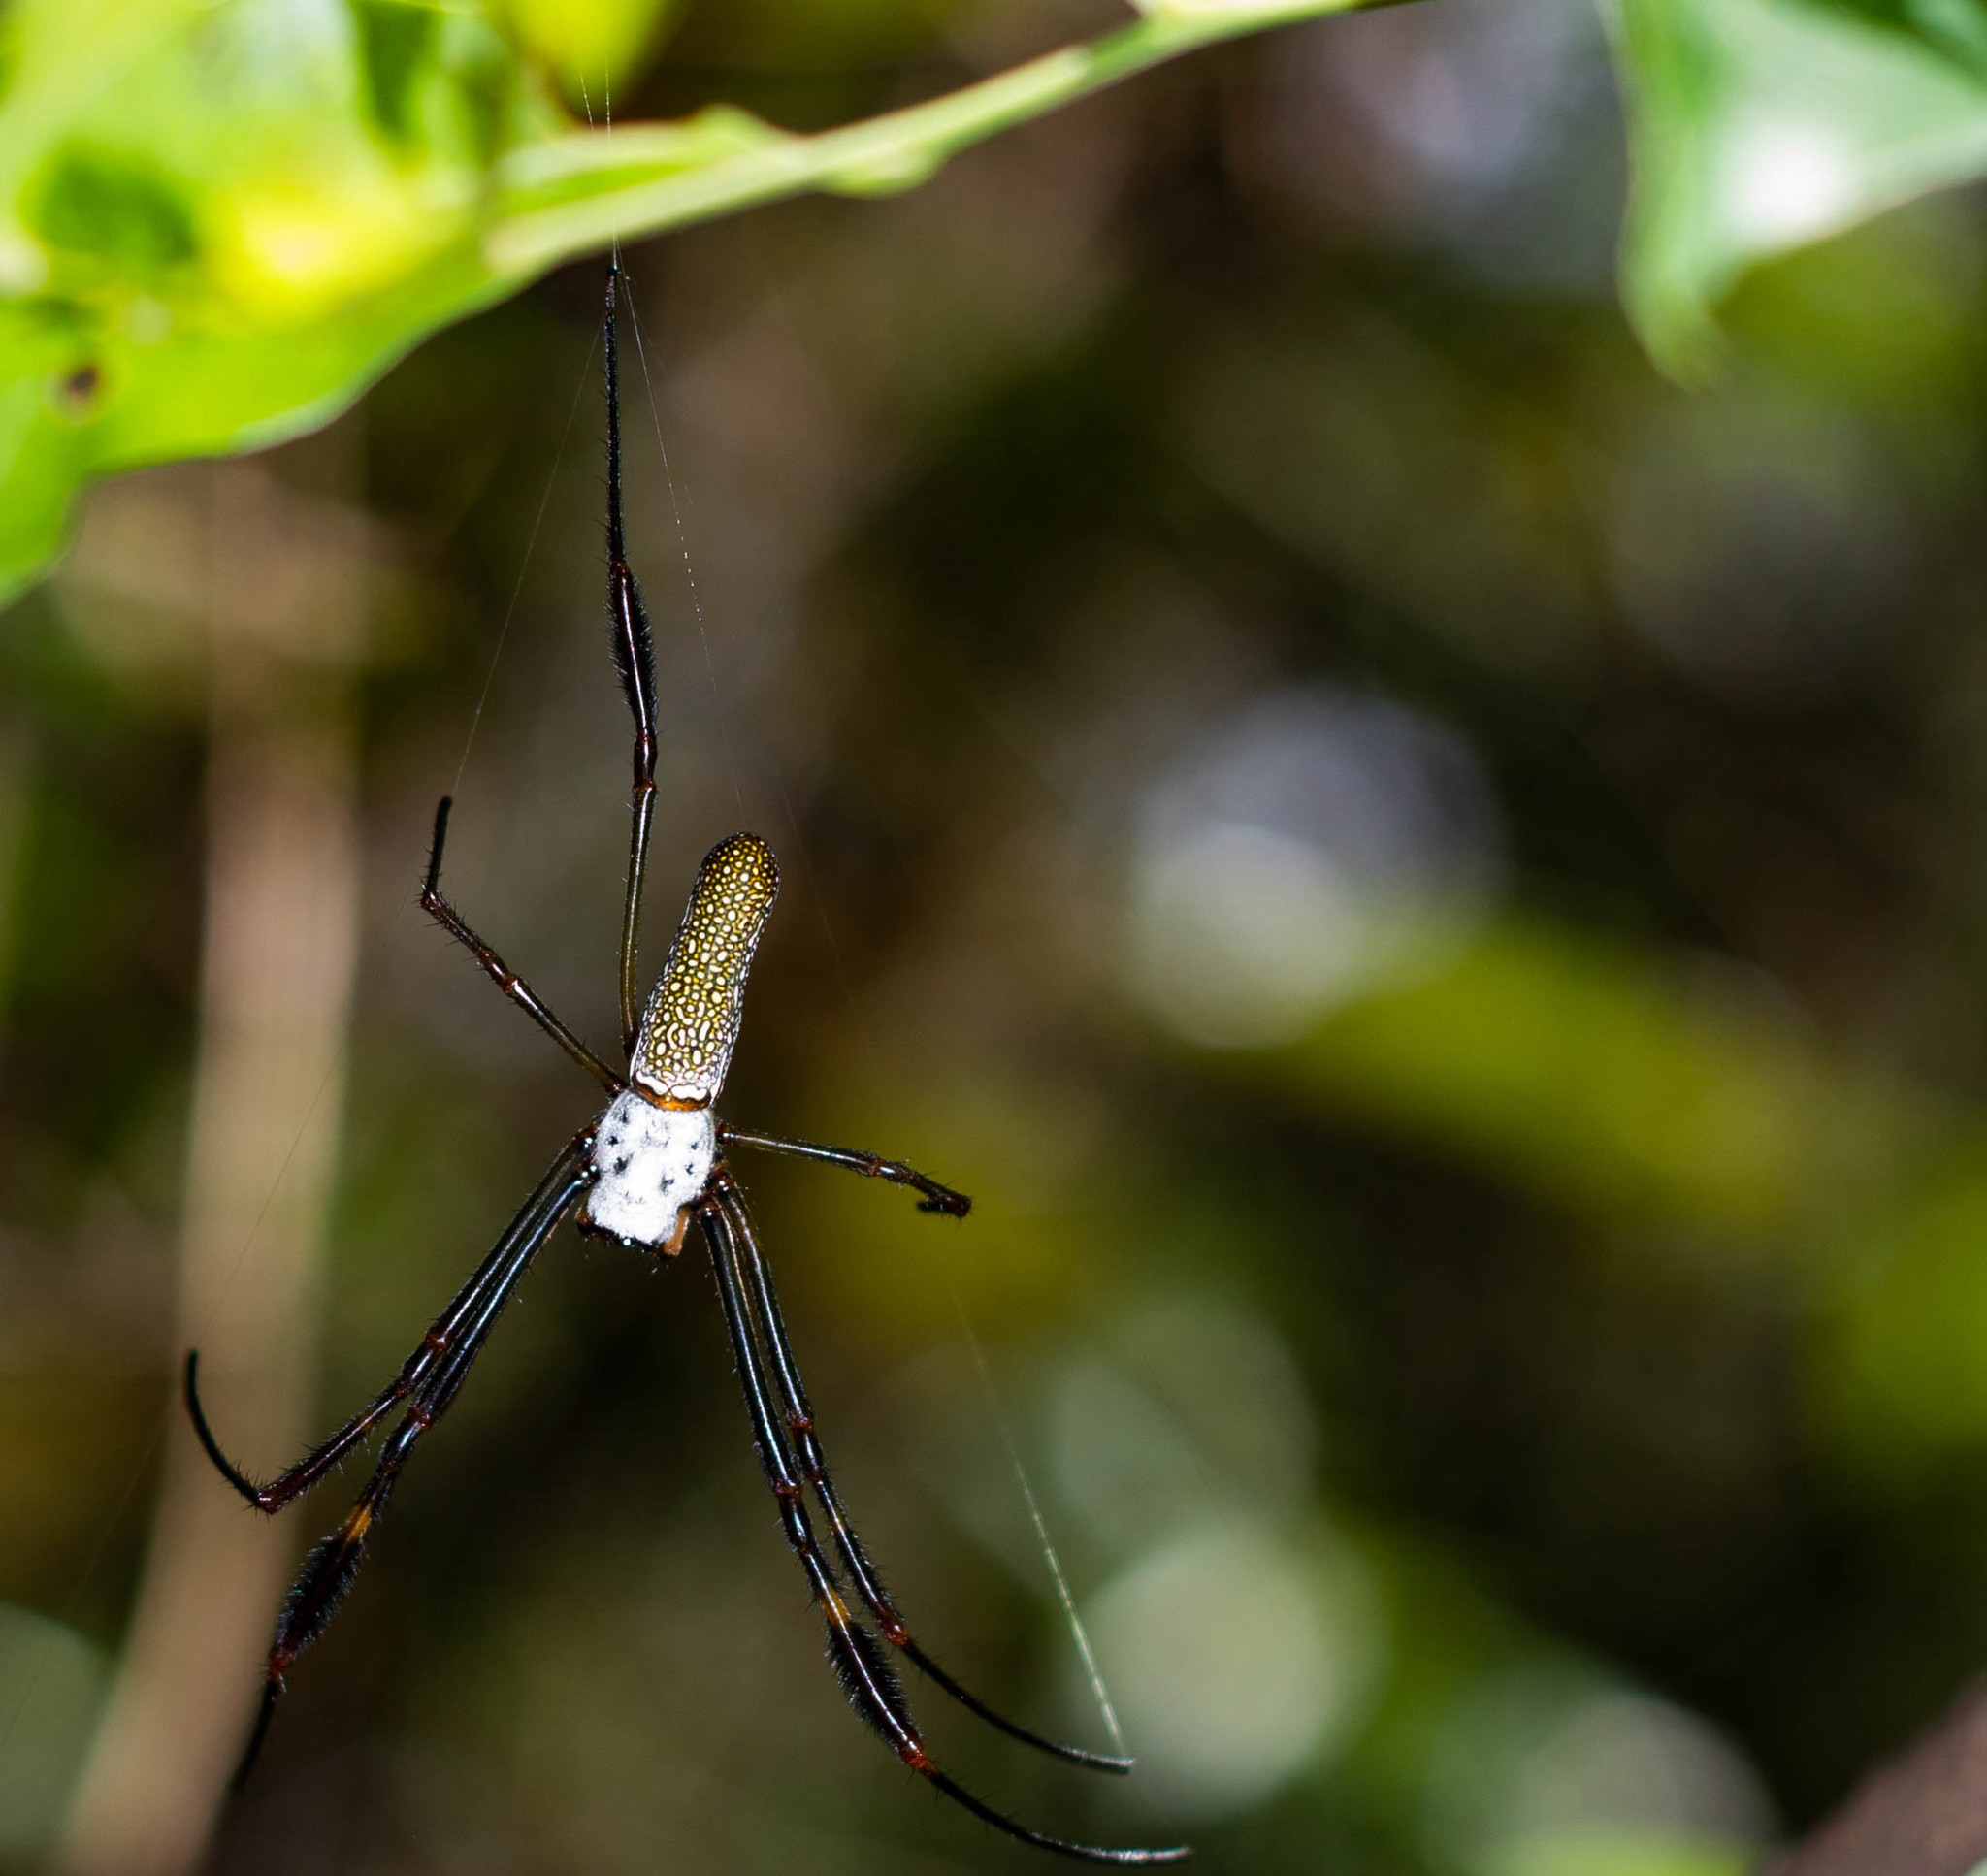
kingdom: Animalia
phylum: Arthropoda
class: Arachnida
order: Araneae
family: Araneidae
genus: Trichonephila
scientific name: Trichonephila clavipes
